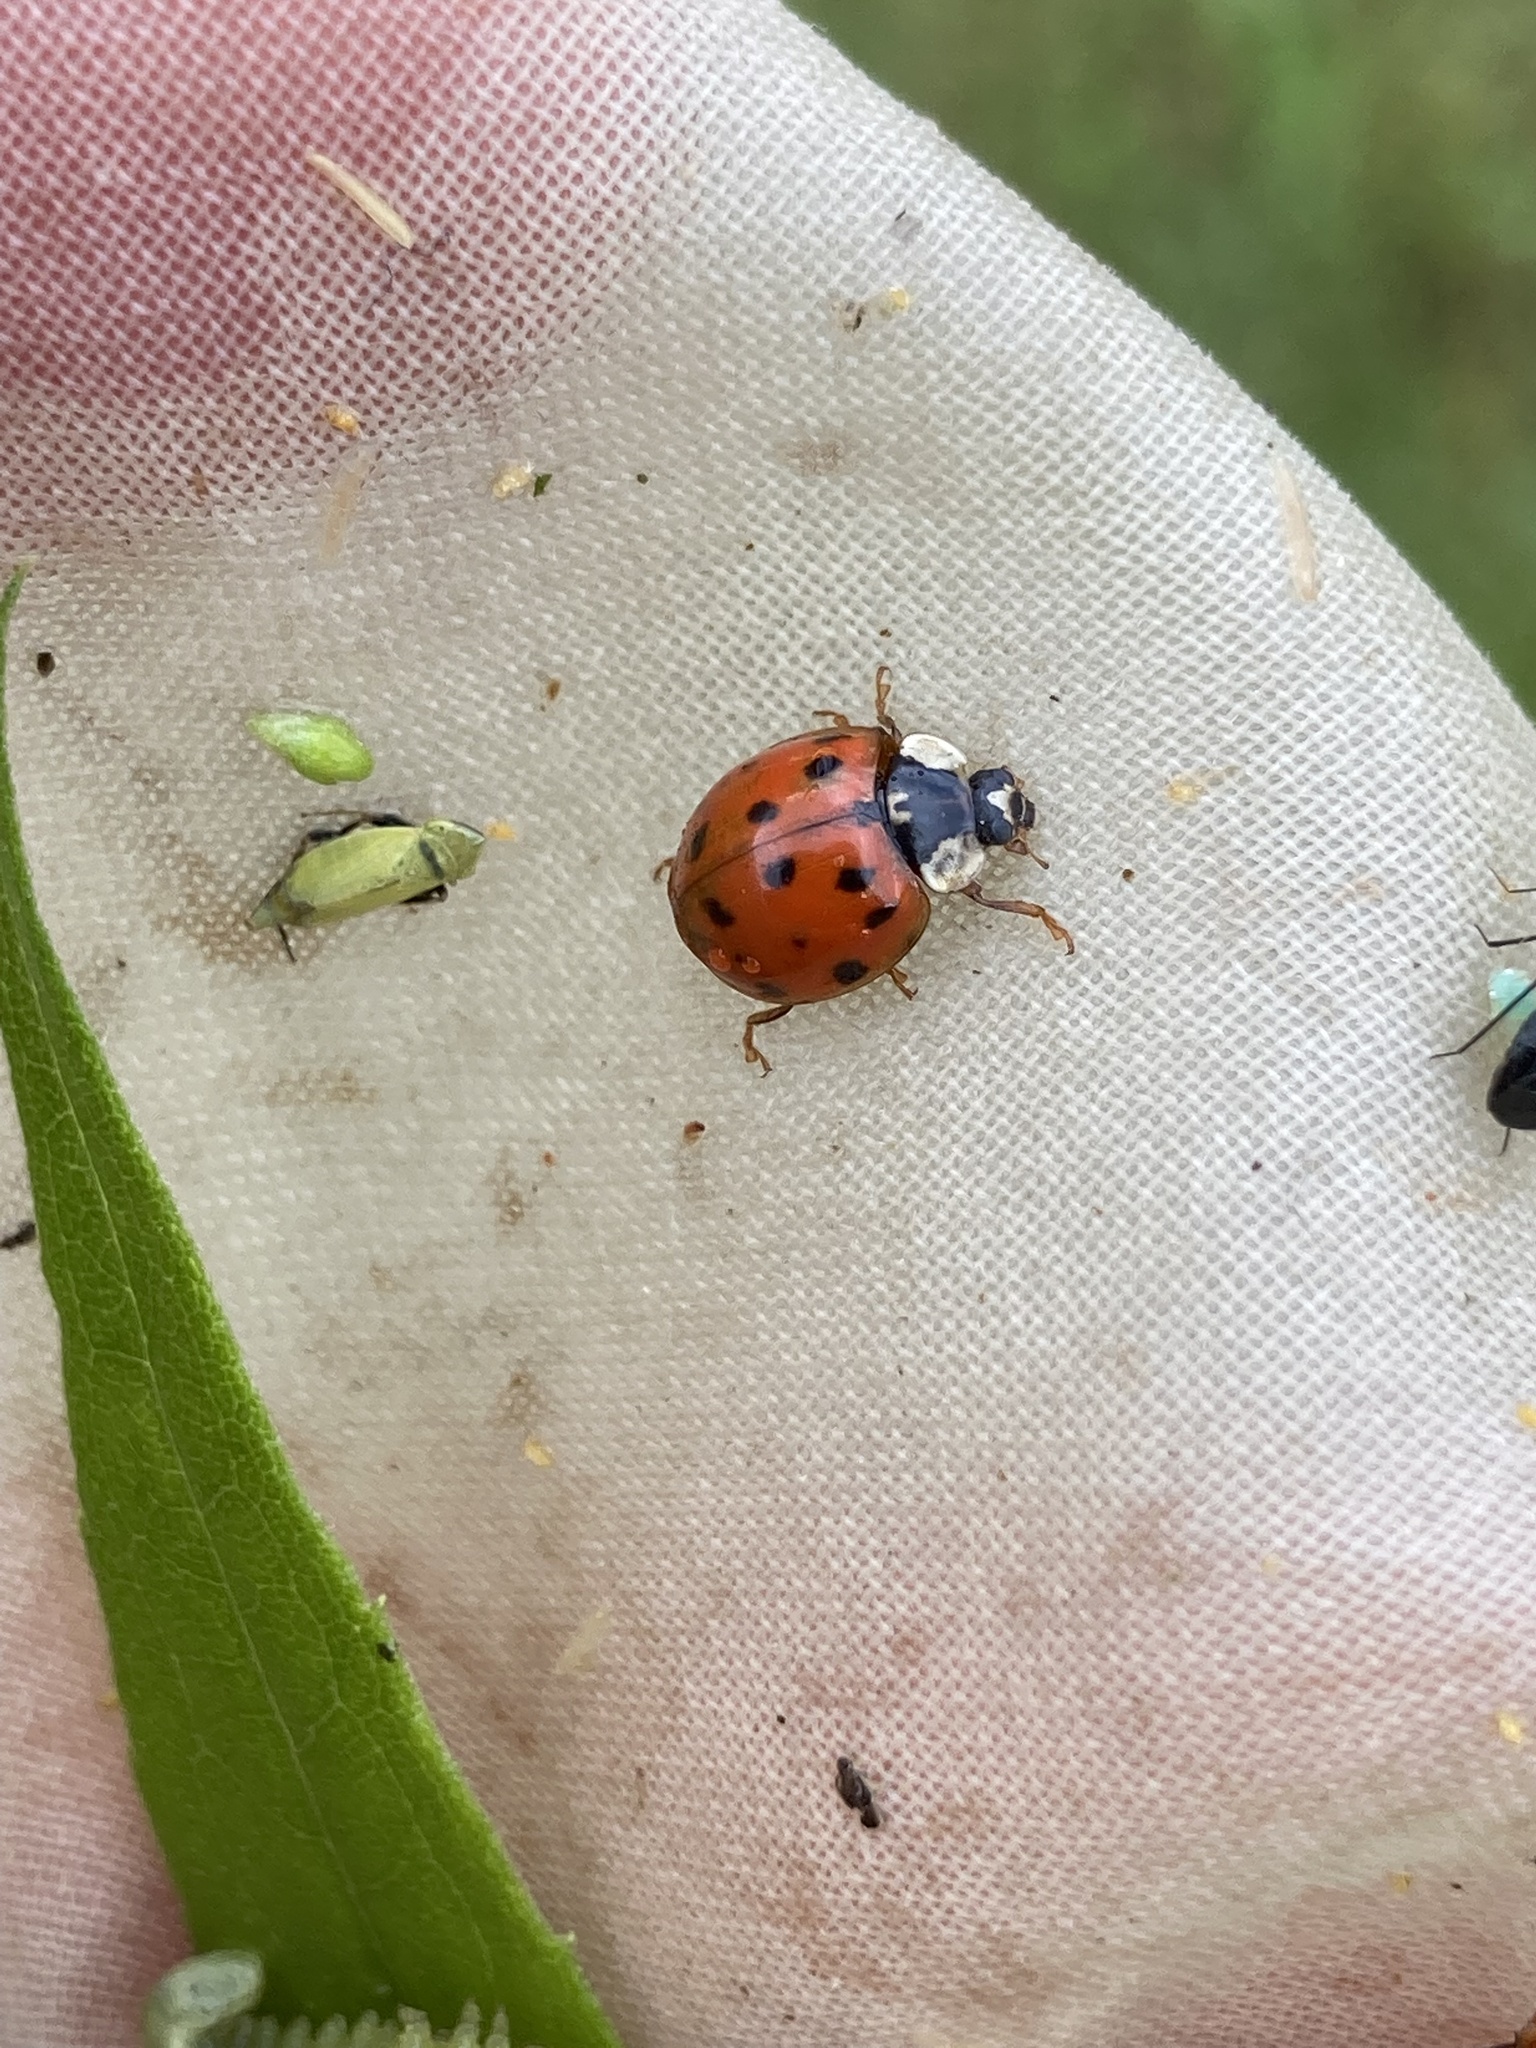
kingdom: Animalia
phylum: Arthropoda
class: Insecta
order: Coleoptera
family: Coccinellidae
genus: Harmonia
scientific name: Harmonia axyridis
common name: Harlequin ladybird
